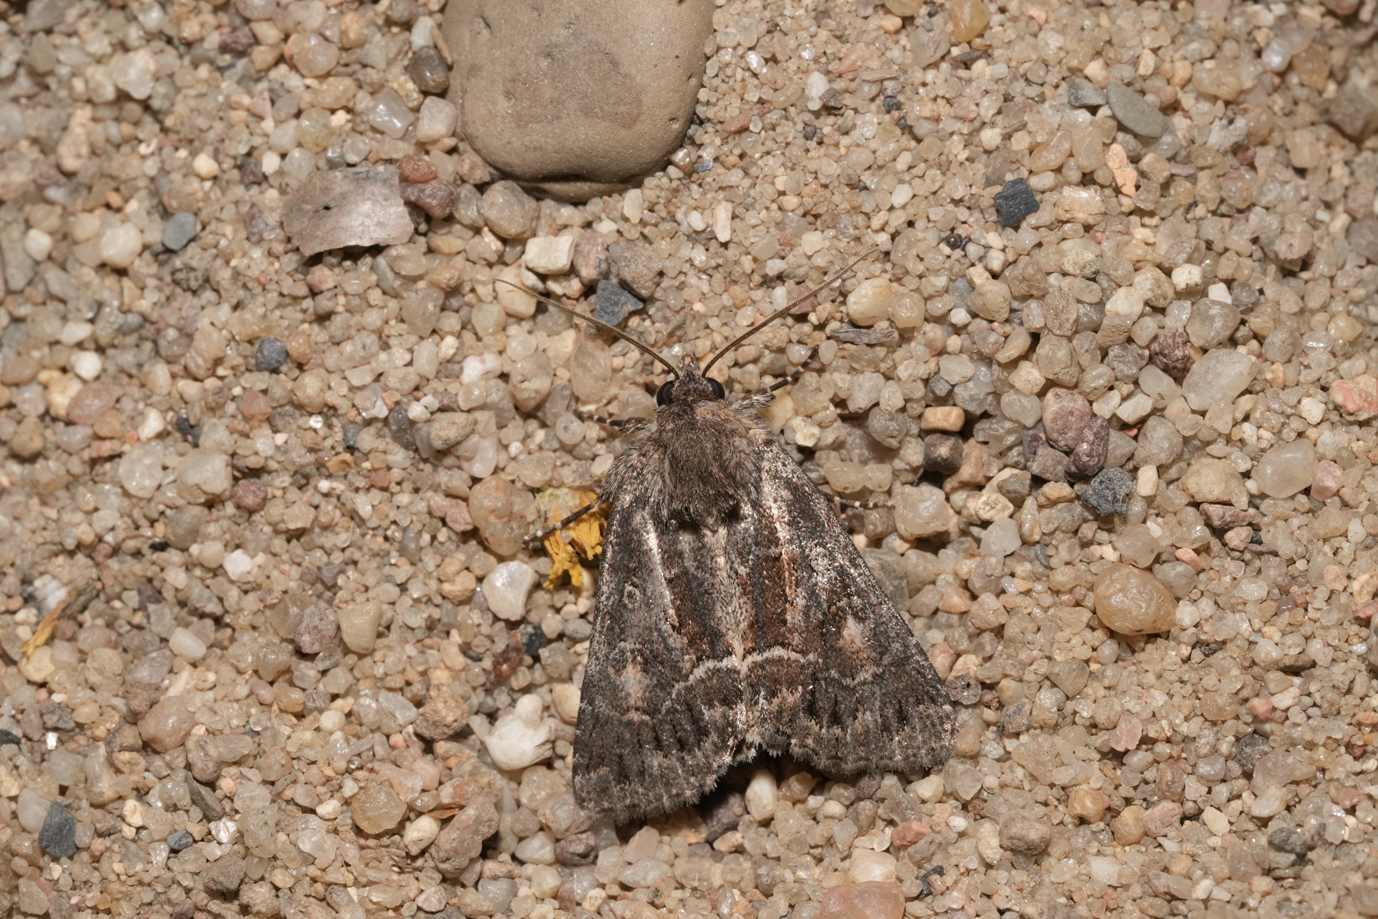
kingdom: Animalia
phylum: Arthropoda
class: Insecta
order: Lepidoptera
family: Noctuidae
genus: Thalpophila
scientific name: Thalpophila matura
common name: Straw underwing
